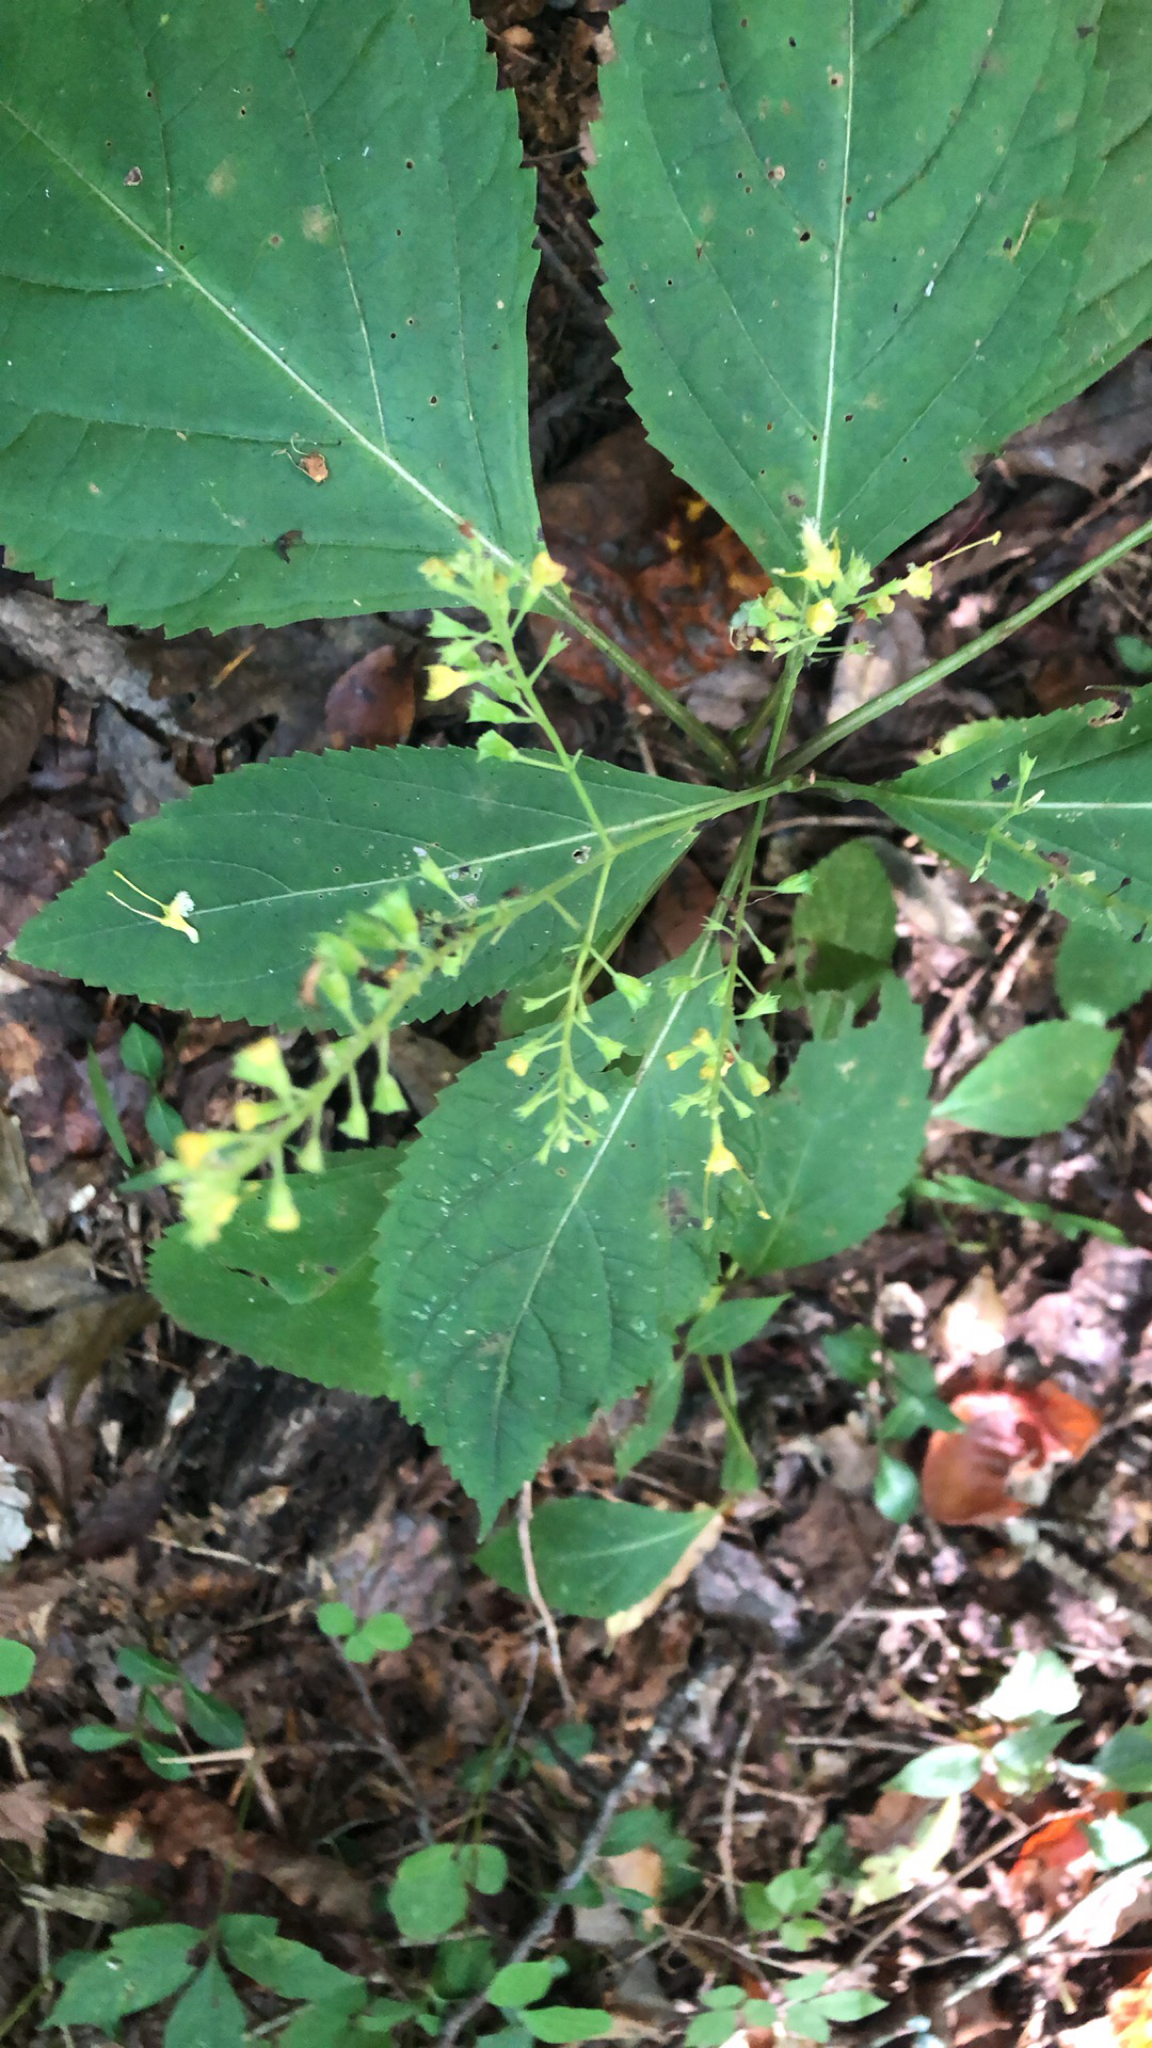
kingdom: Plantae
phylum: Tracheophyta
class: Magnoliopsida
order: Lamiales
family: Lamiaceae
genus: Collinsonia
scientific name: Collinsonia canadensis
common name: Northern horsebalm
